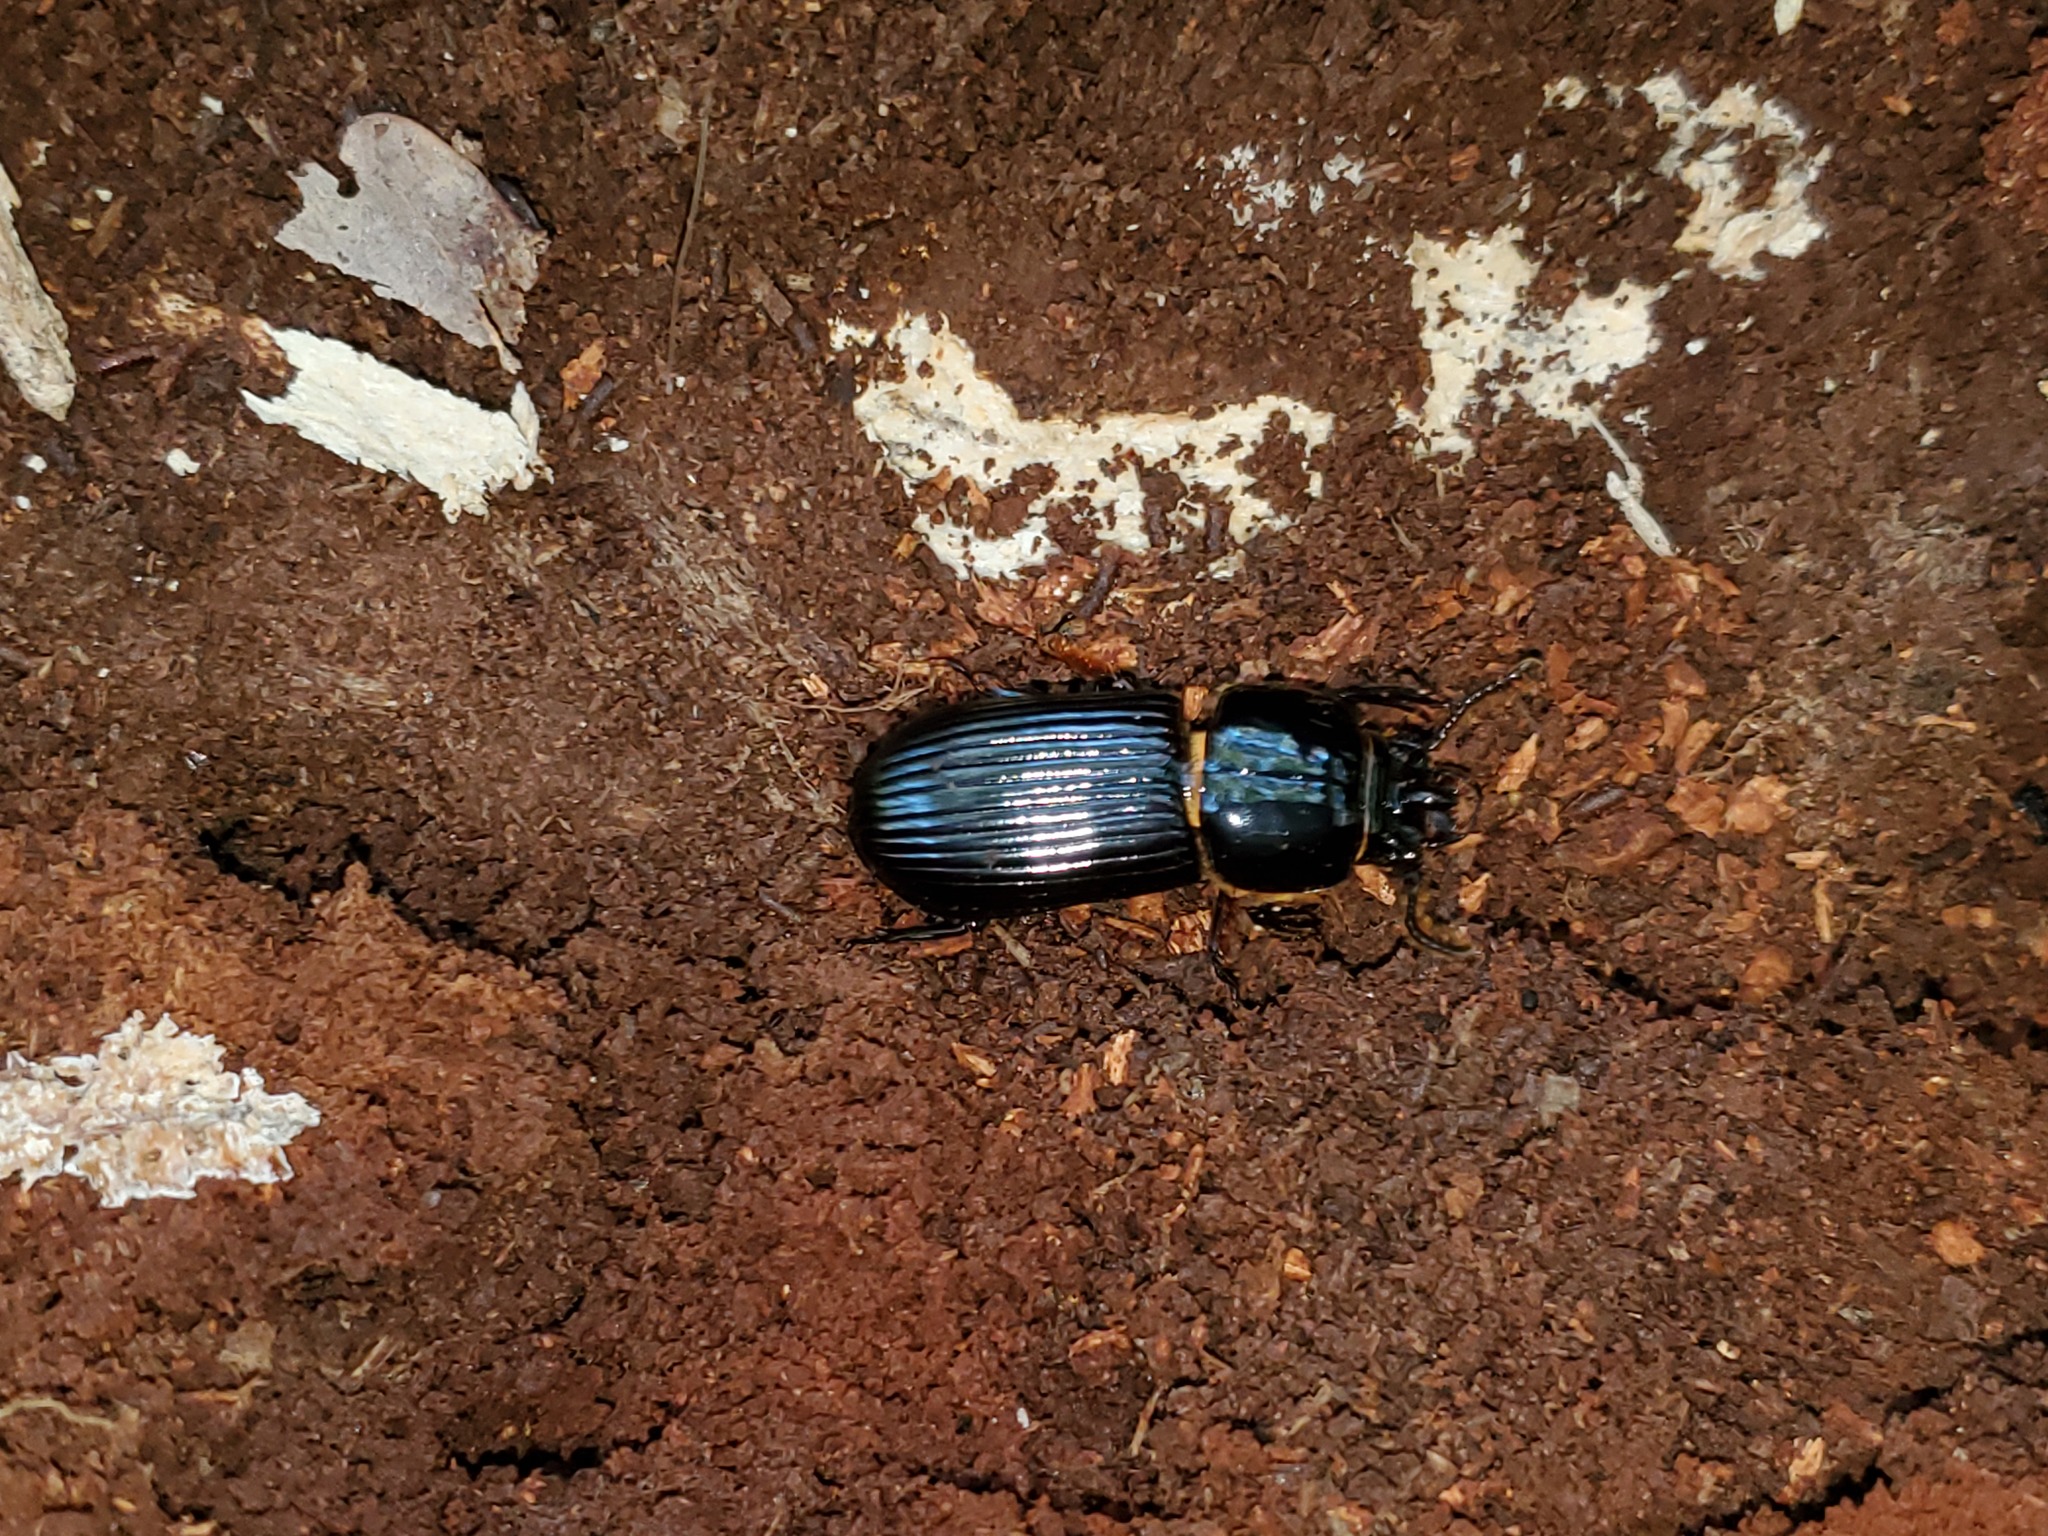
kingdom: Animalia
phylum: Arthropoda
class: Insecta
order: Coleoptera
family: Passalidae
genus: Odontotaenius
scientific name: Odontotaenius disjunctus
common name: Patent leather beetle
